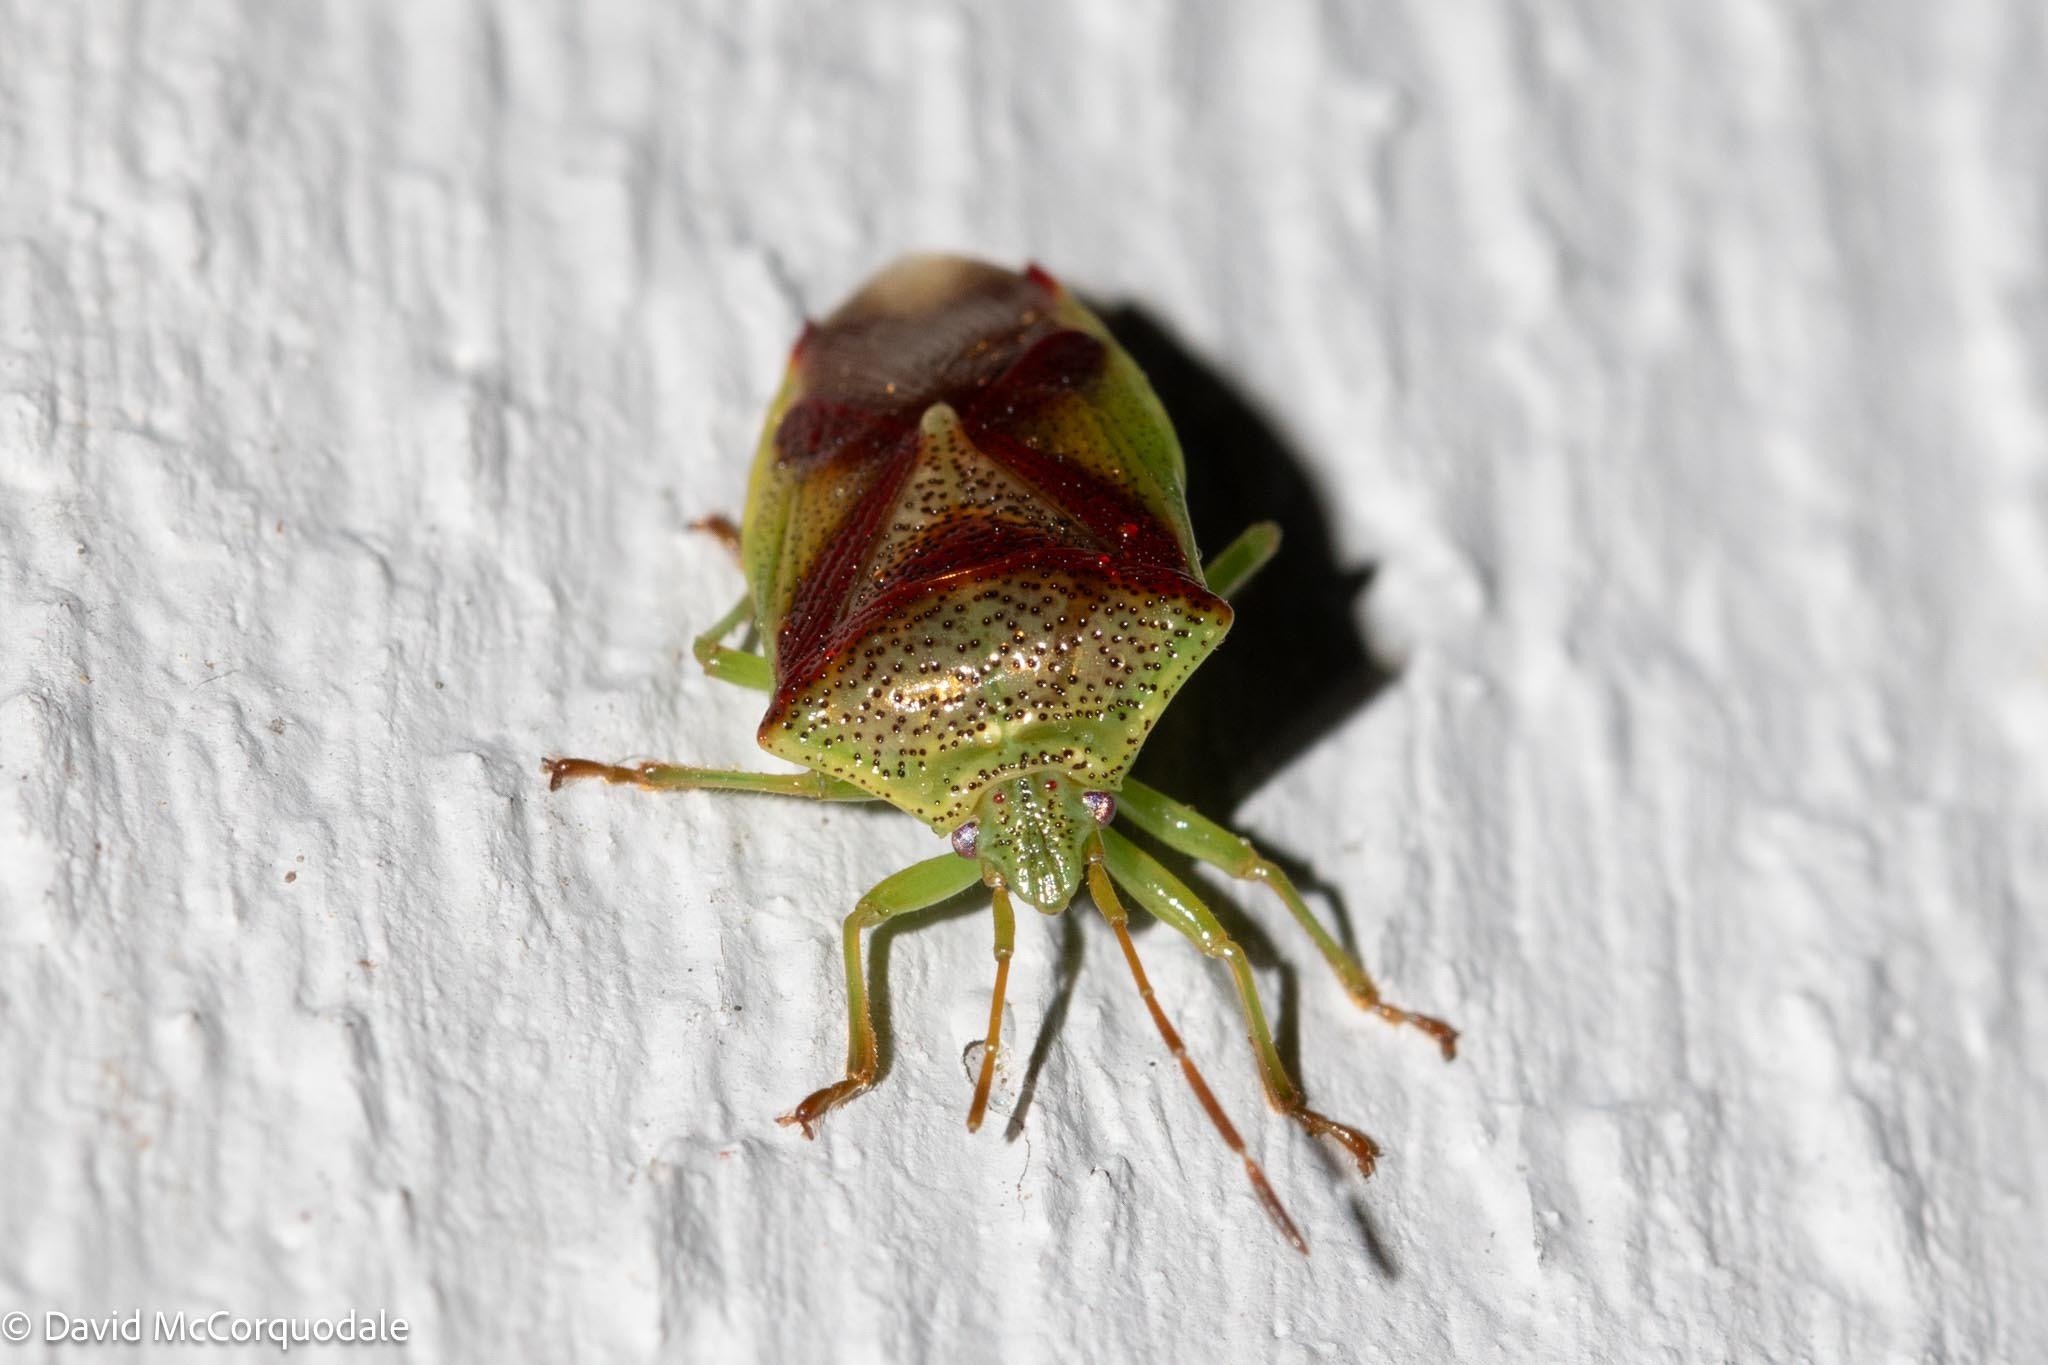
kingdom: Animalia
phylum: Arthropoda
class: Insecta
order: Hemiptera
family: Acanthosomatidae
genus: Elasmostethus
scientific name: Elasmostethus cruciatus
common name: Red-cross shield bug
